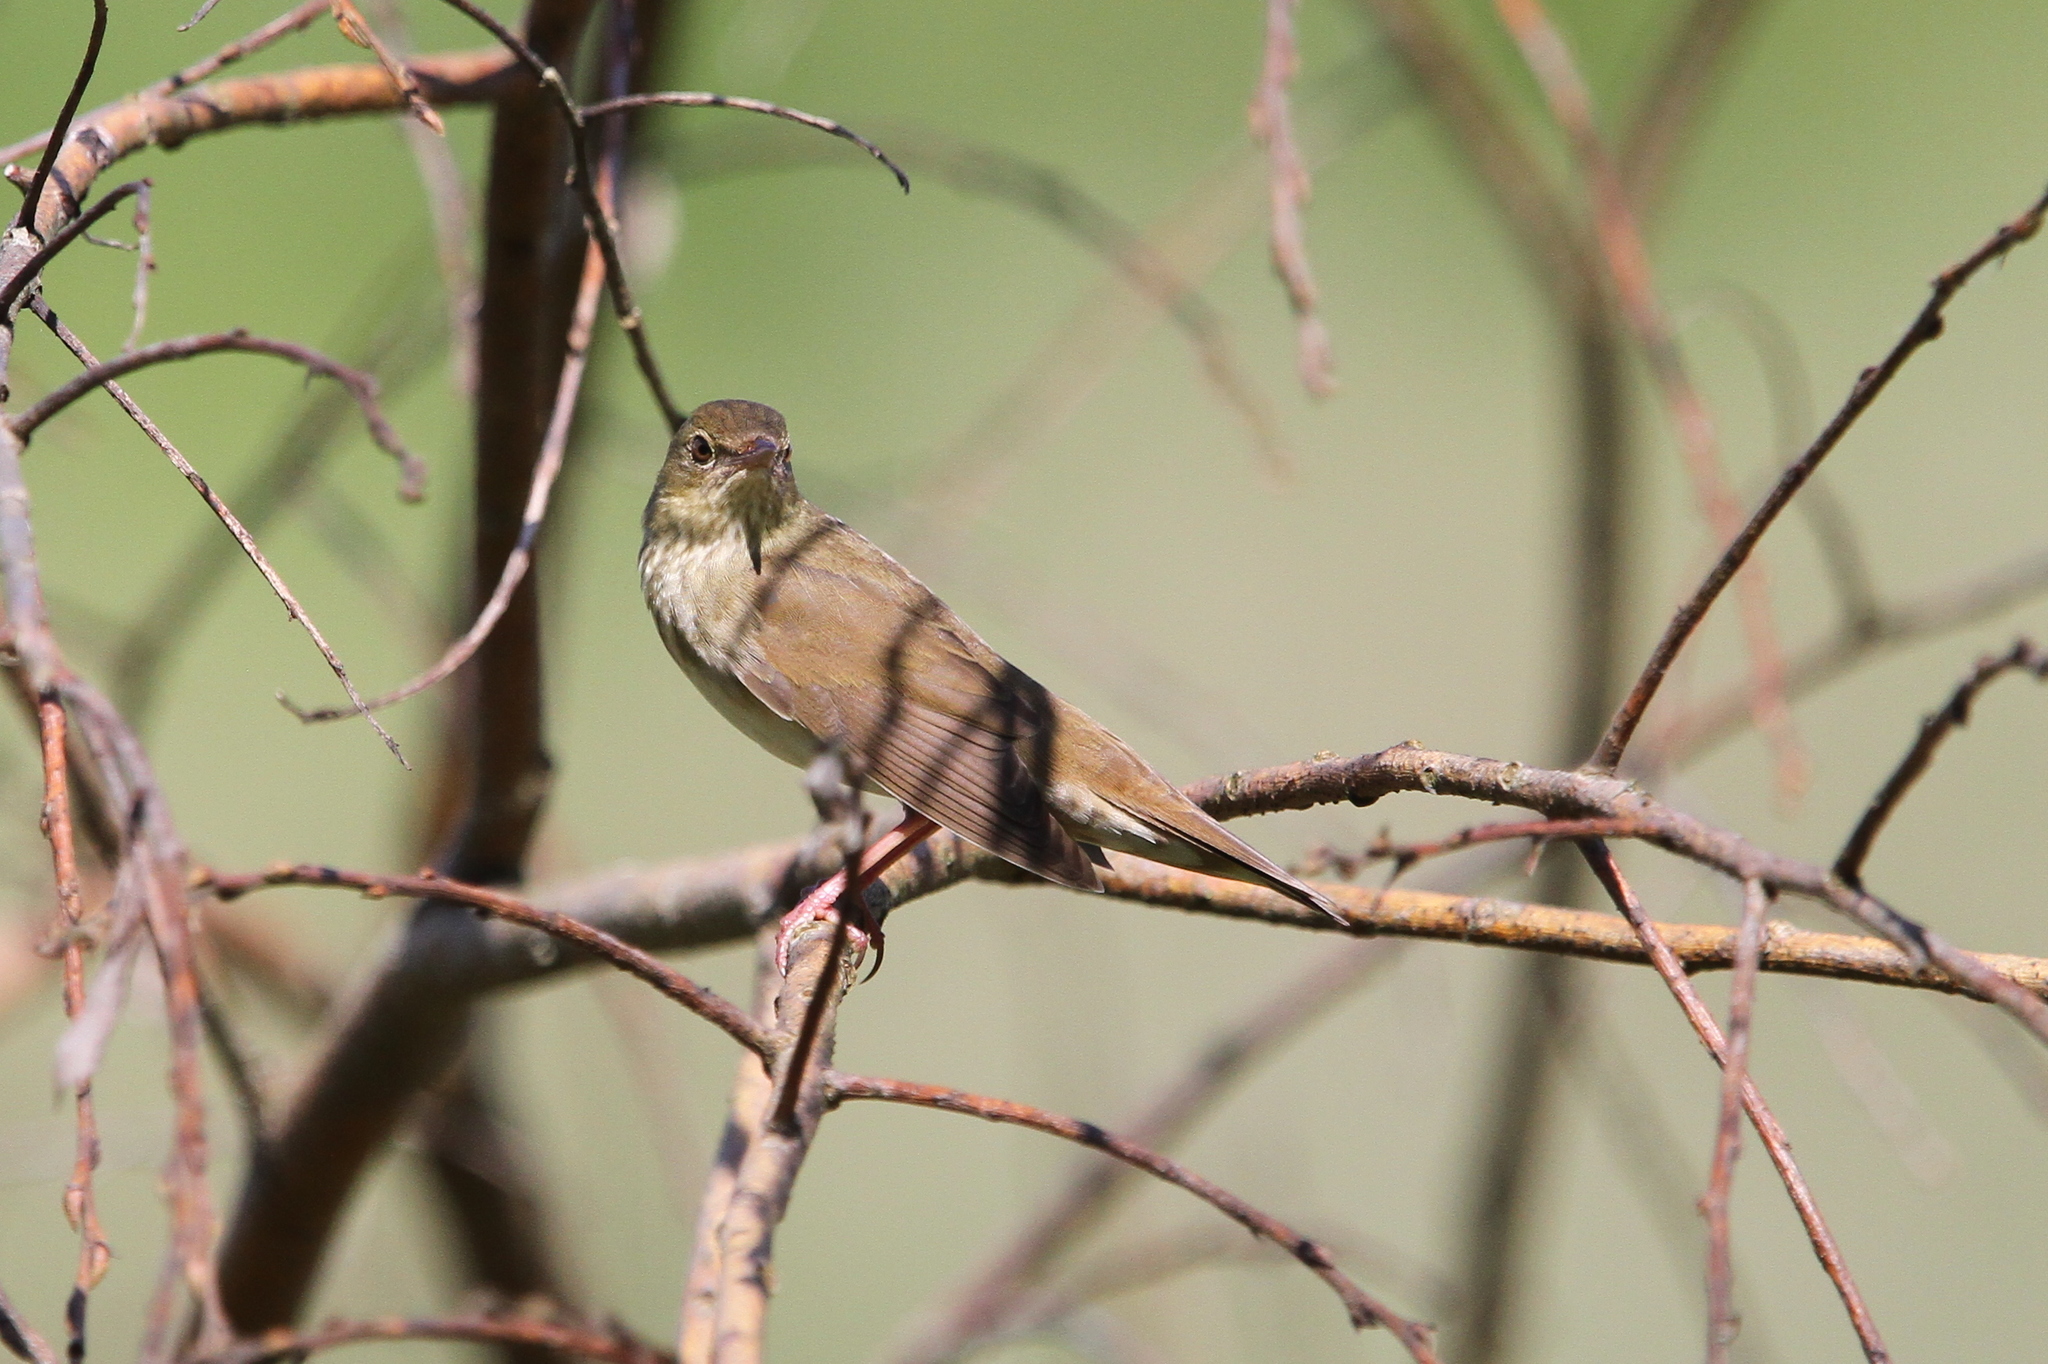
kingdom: Animalia
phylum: Chordata
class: Aves
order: Passeriformes
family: Locustellidae
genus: Locustella
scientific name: Locustella fluviatilis
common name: River warbler
